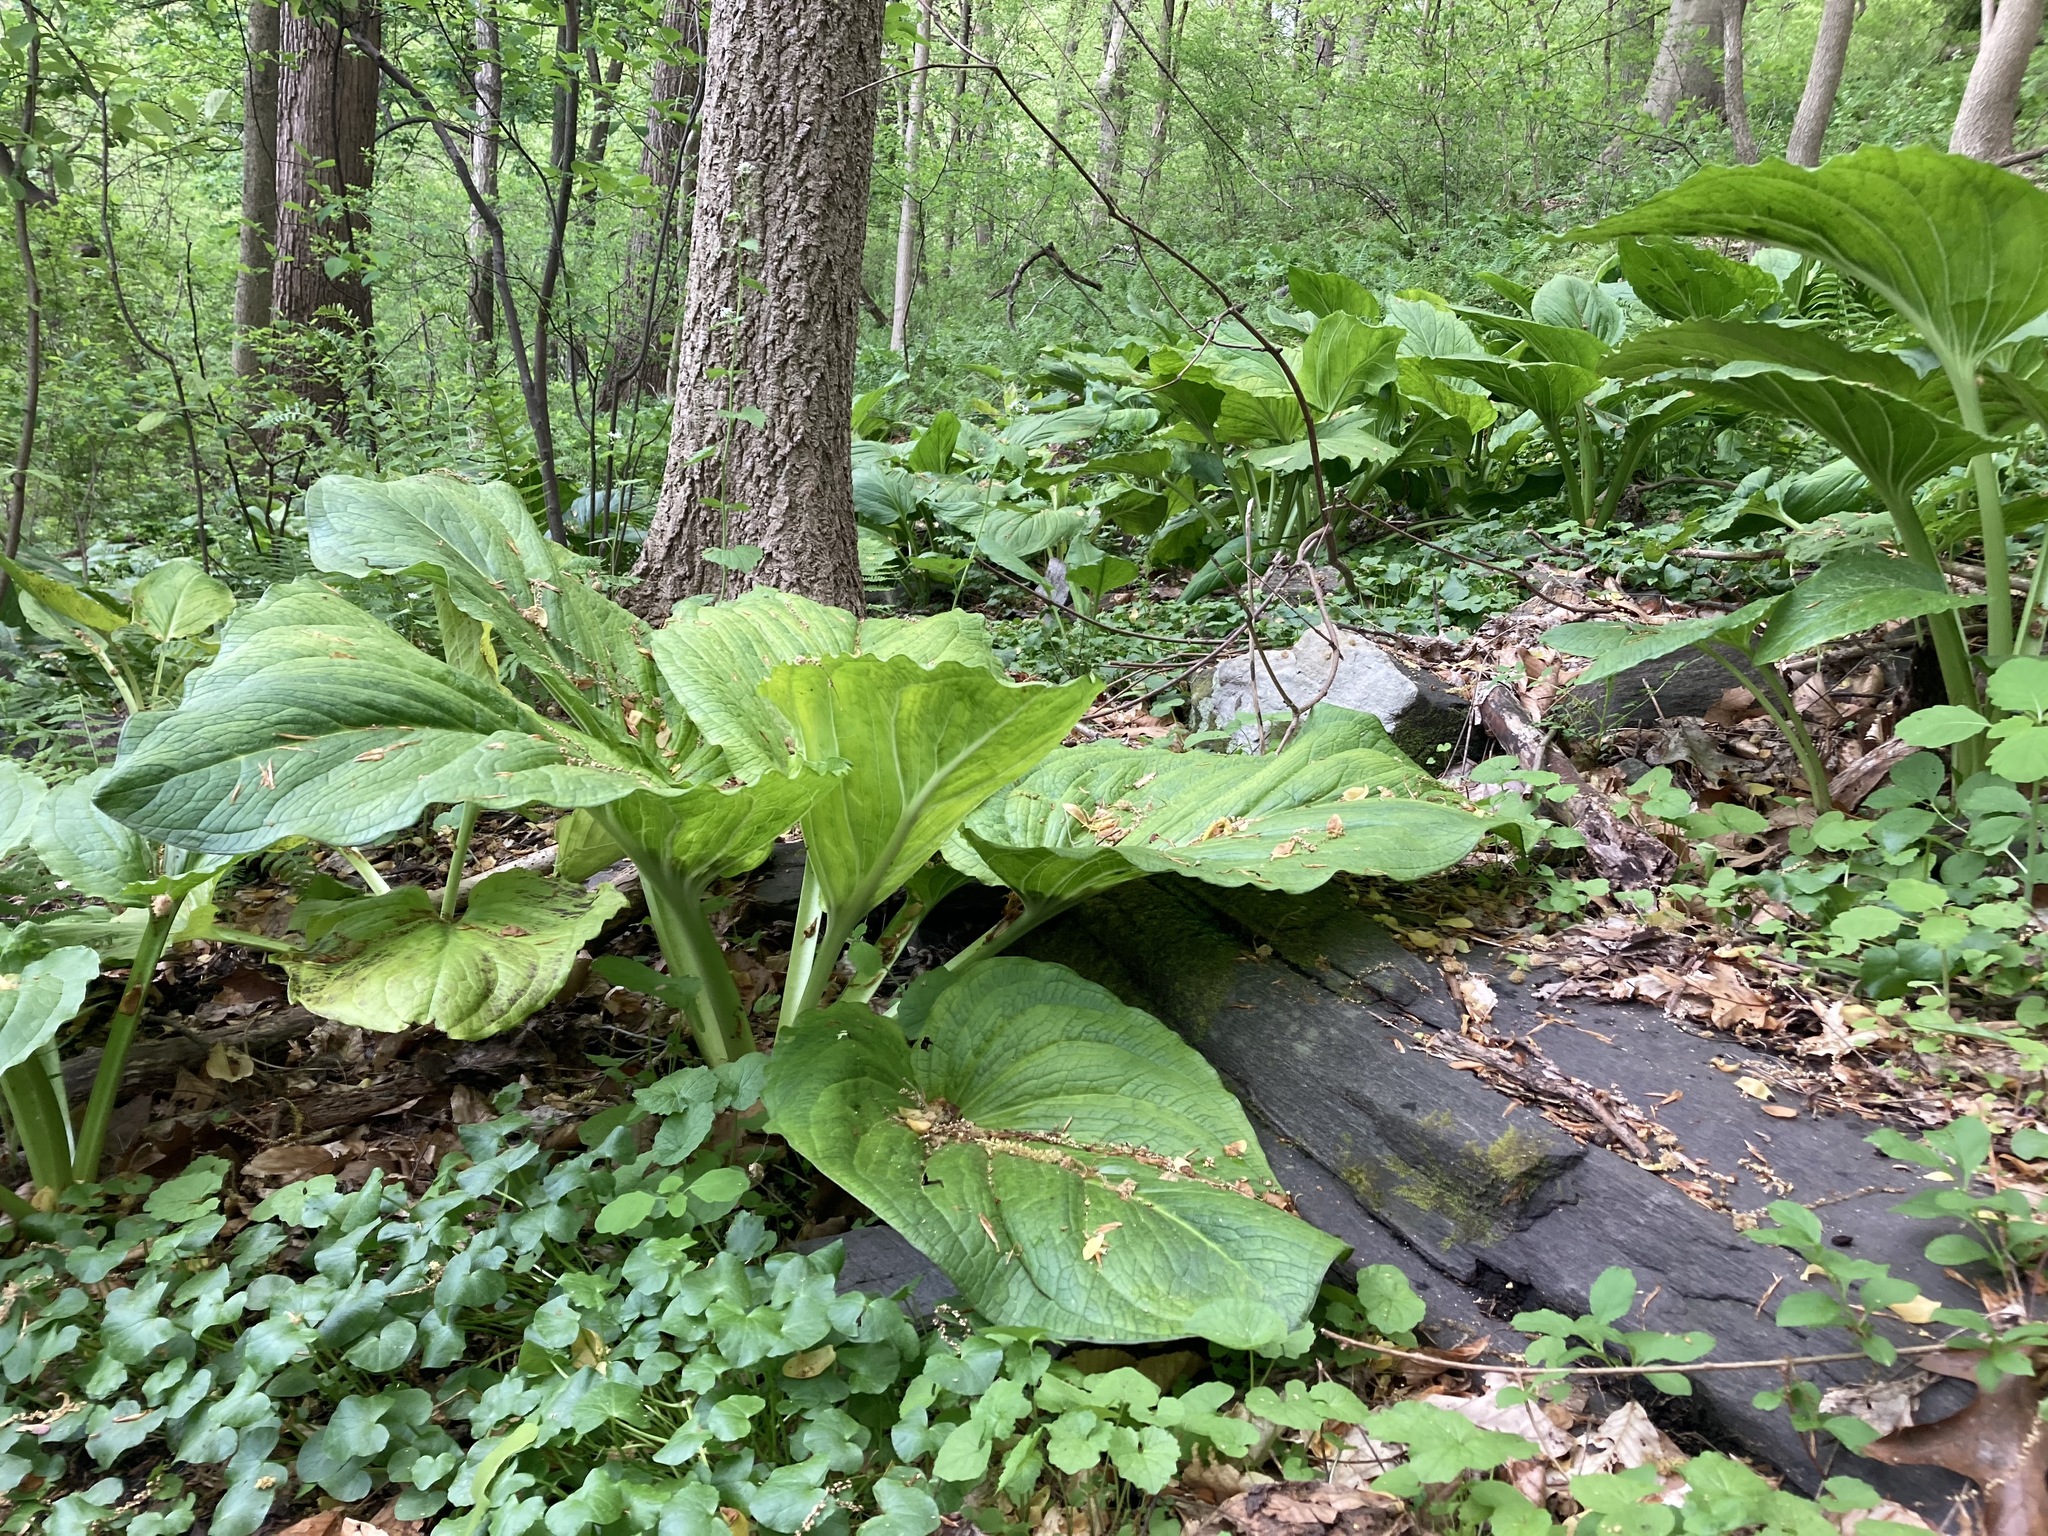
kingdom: Plantae
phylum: Tracheophyta
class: Liliopsida
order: Alismatales
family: Araceae
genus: Symplocarpus
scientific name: Symplocarpus foetidus
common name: Eastern skunk cabbage
